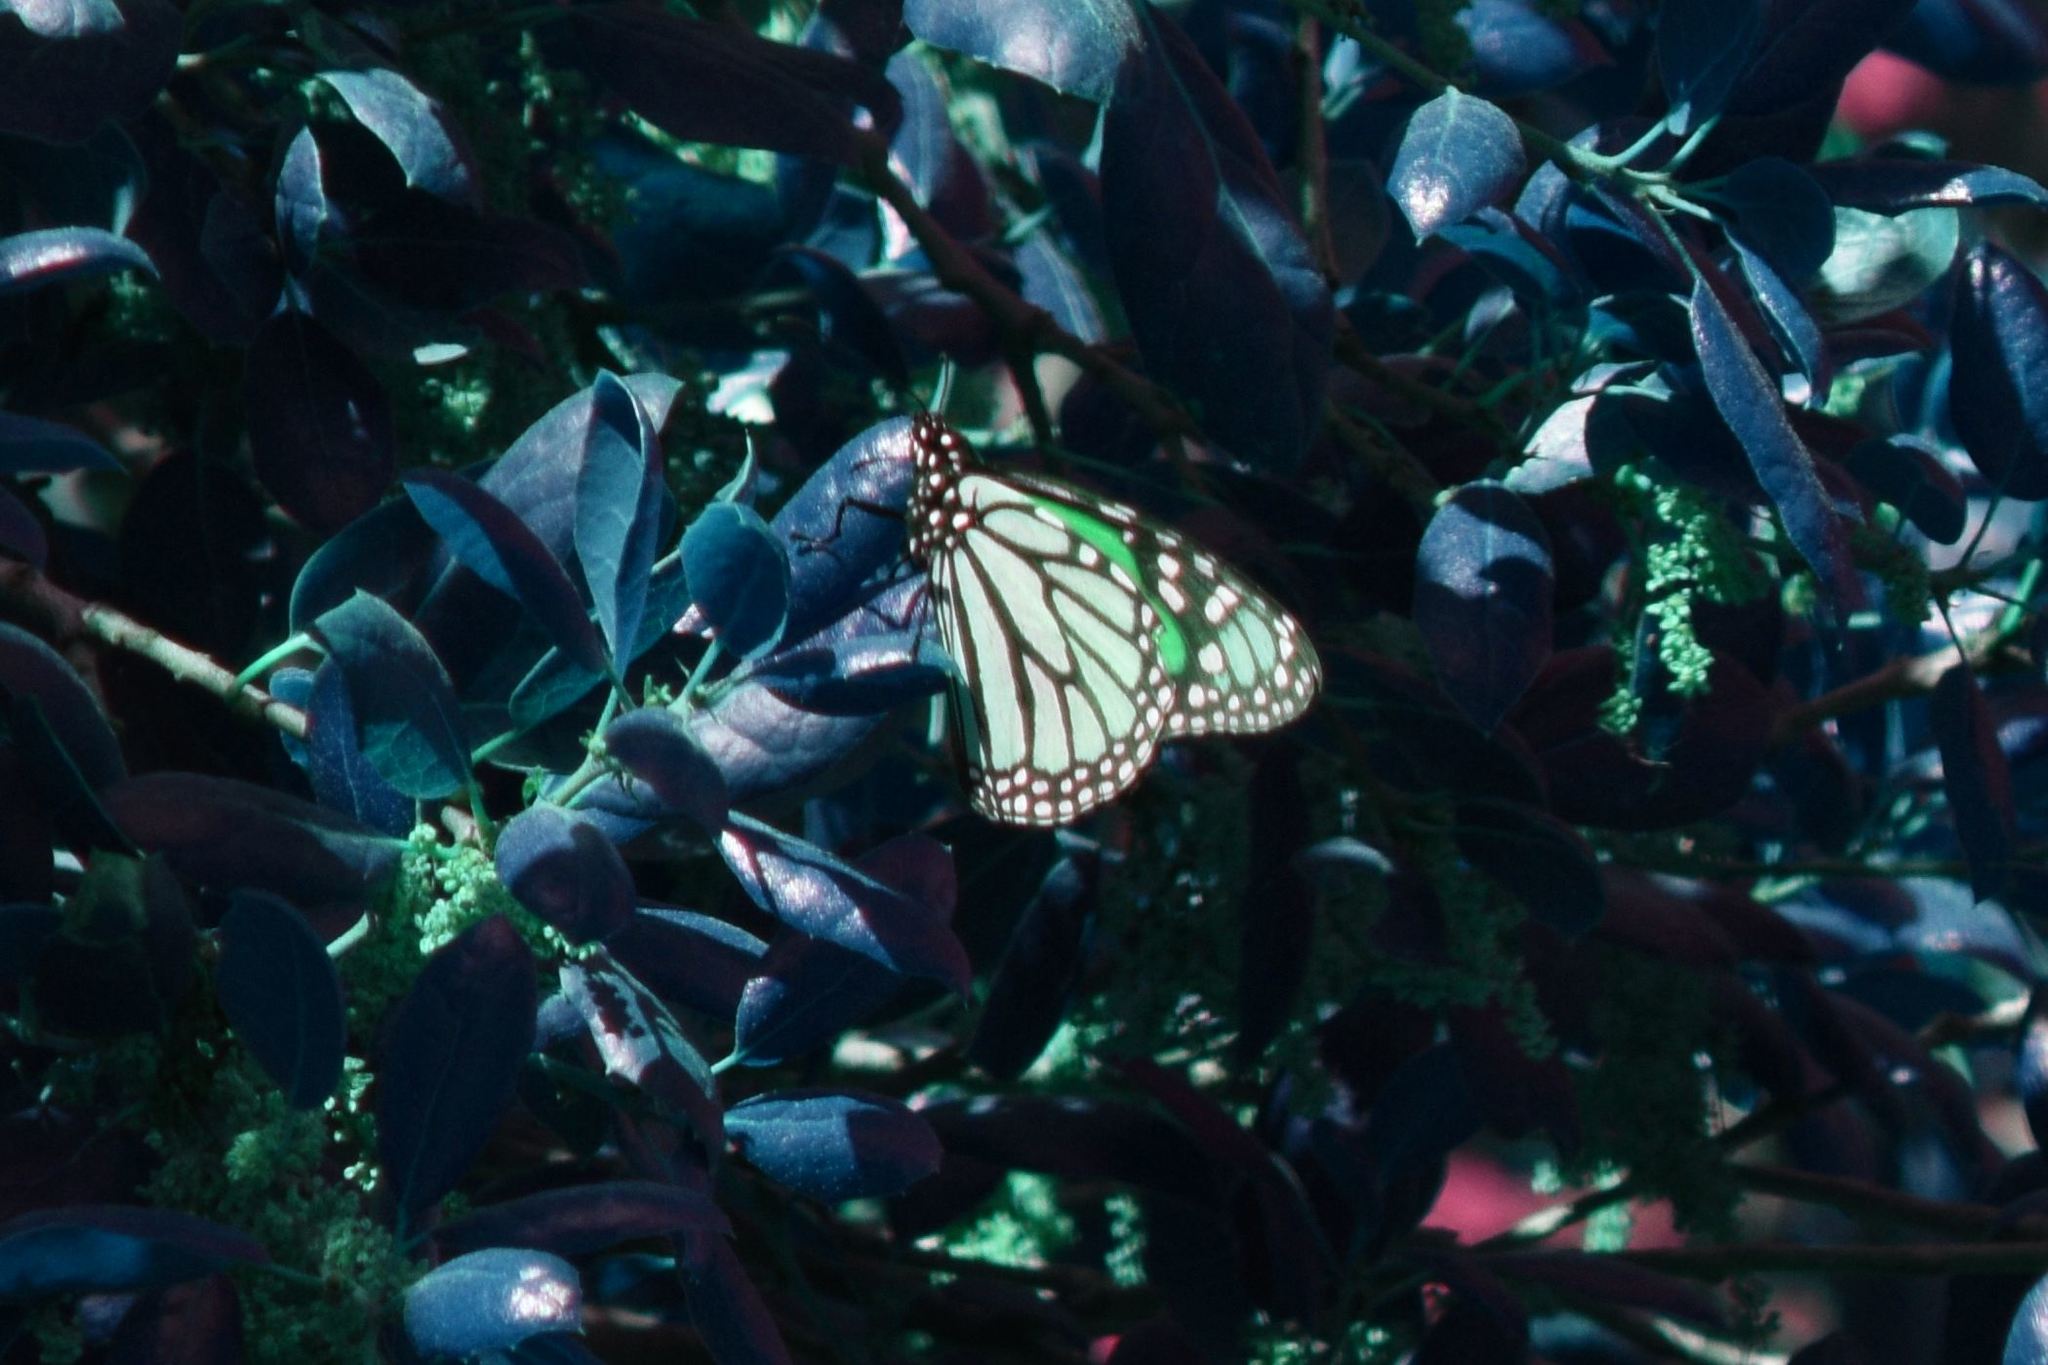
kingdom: Animalia
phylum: Arthropoda
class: Insecta
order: Lepidoptera
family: Nymphalidae
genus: Danaus
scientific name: Danaus plexippus
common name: Monarch
